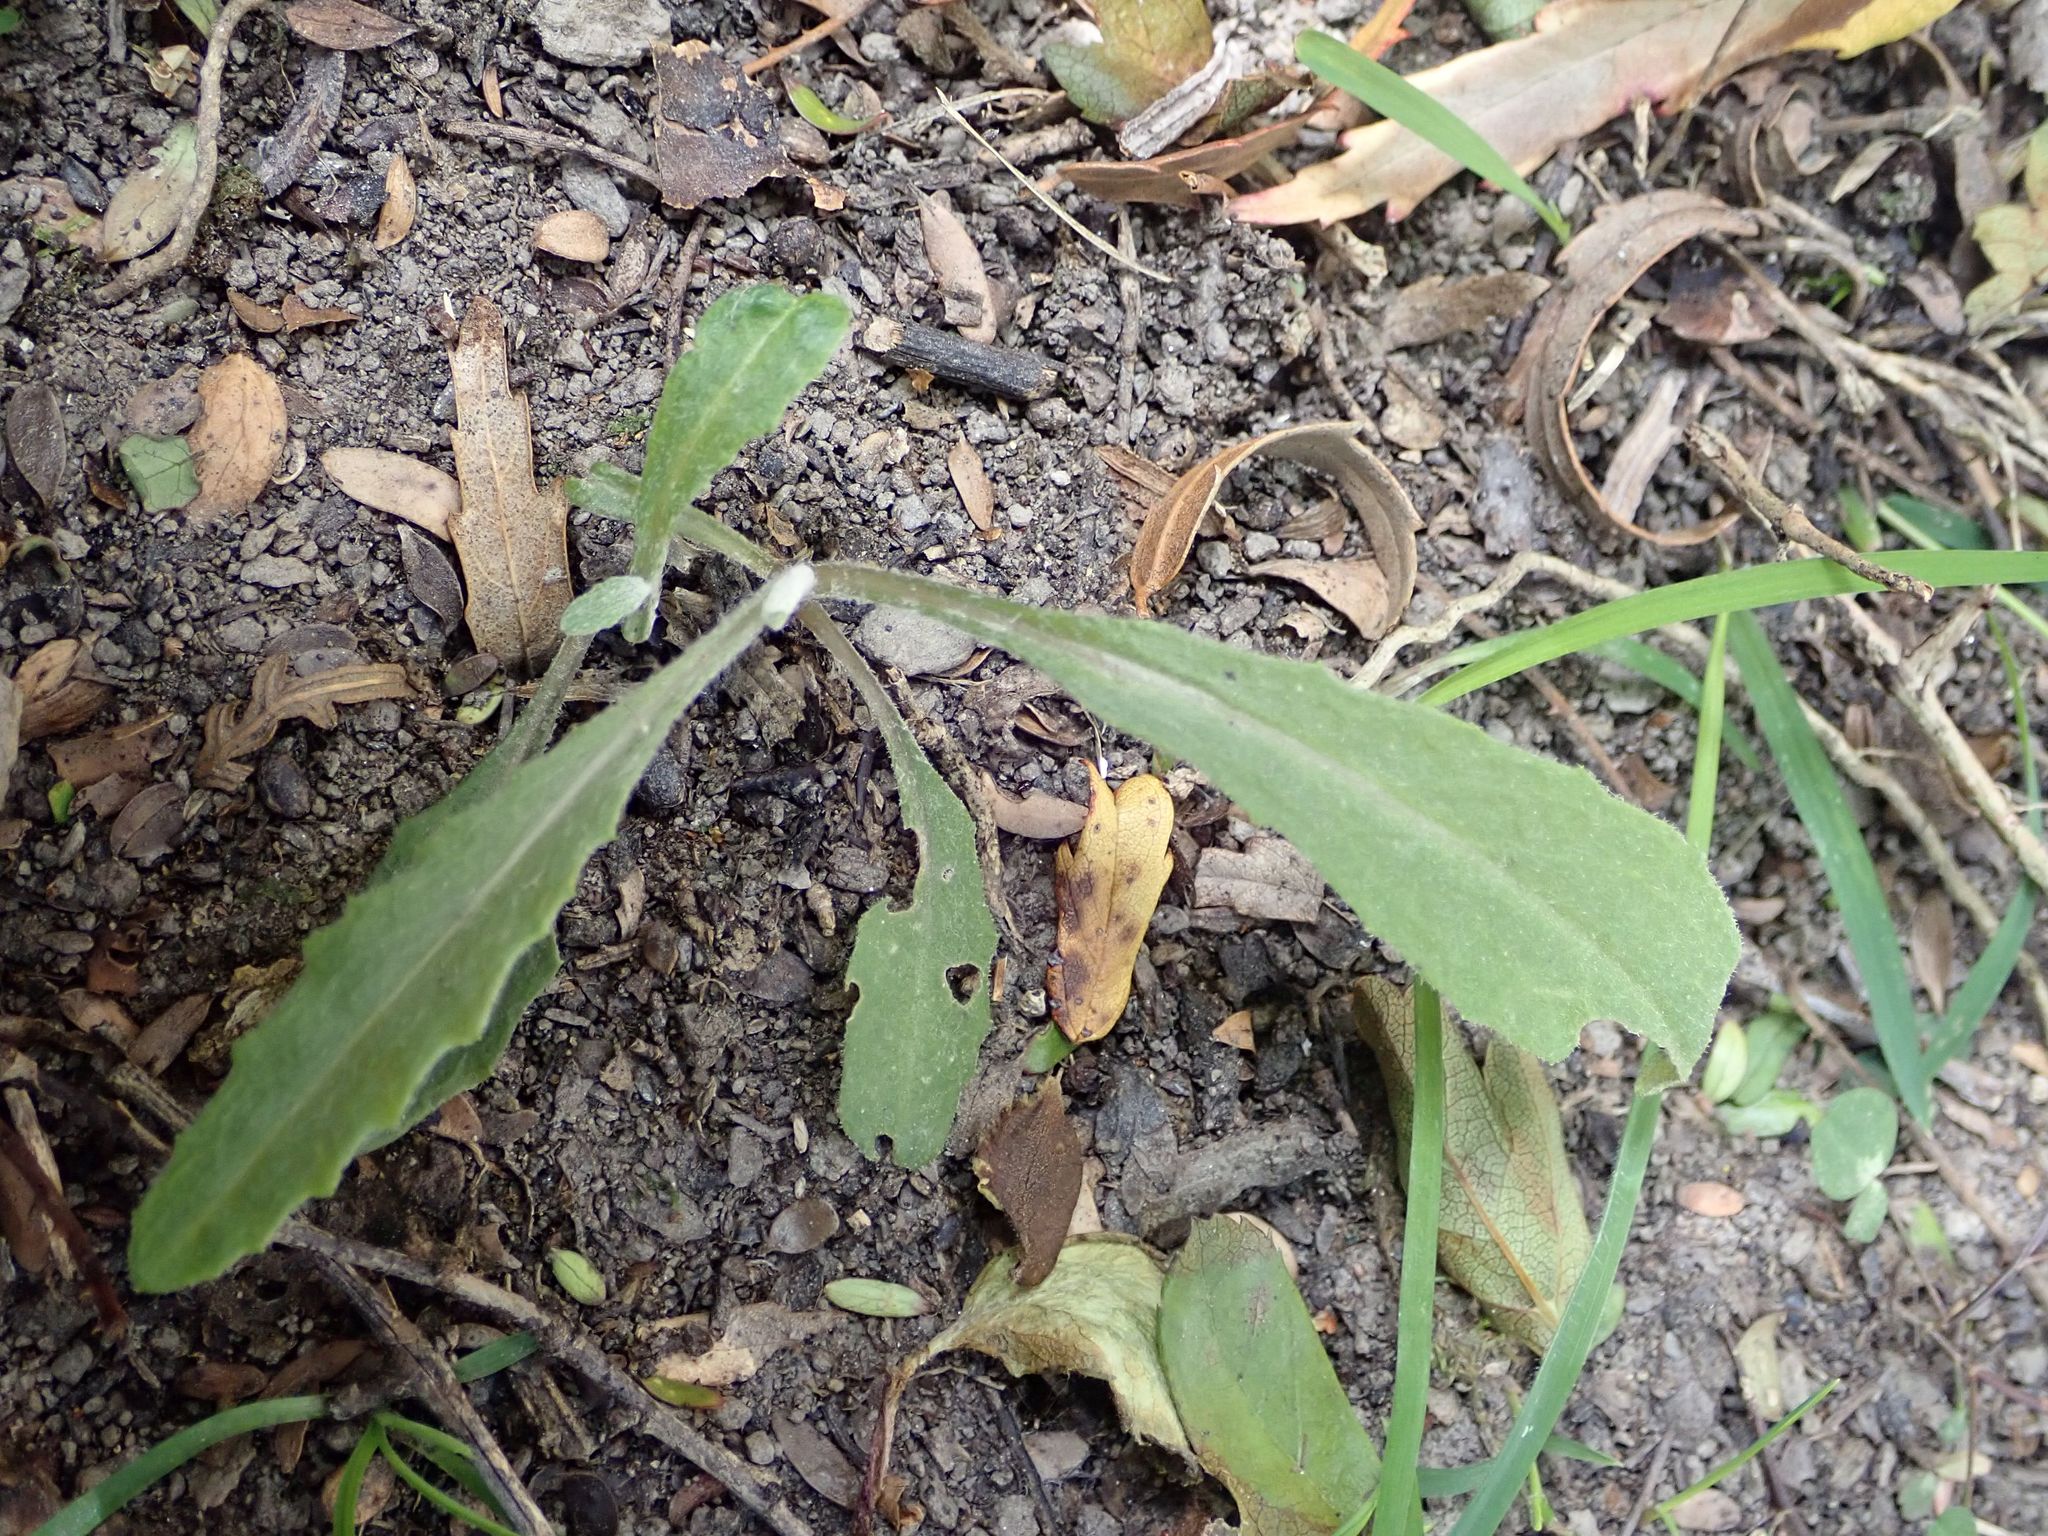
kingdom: Plantae
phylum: Tracheophyta
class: Magnoliopsida
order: Asterales
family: Asteraceae
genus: Senecio
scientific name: Senecio minimus
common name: Toothed fireweed
